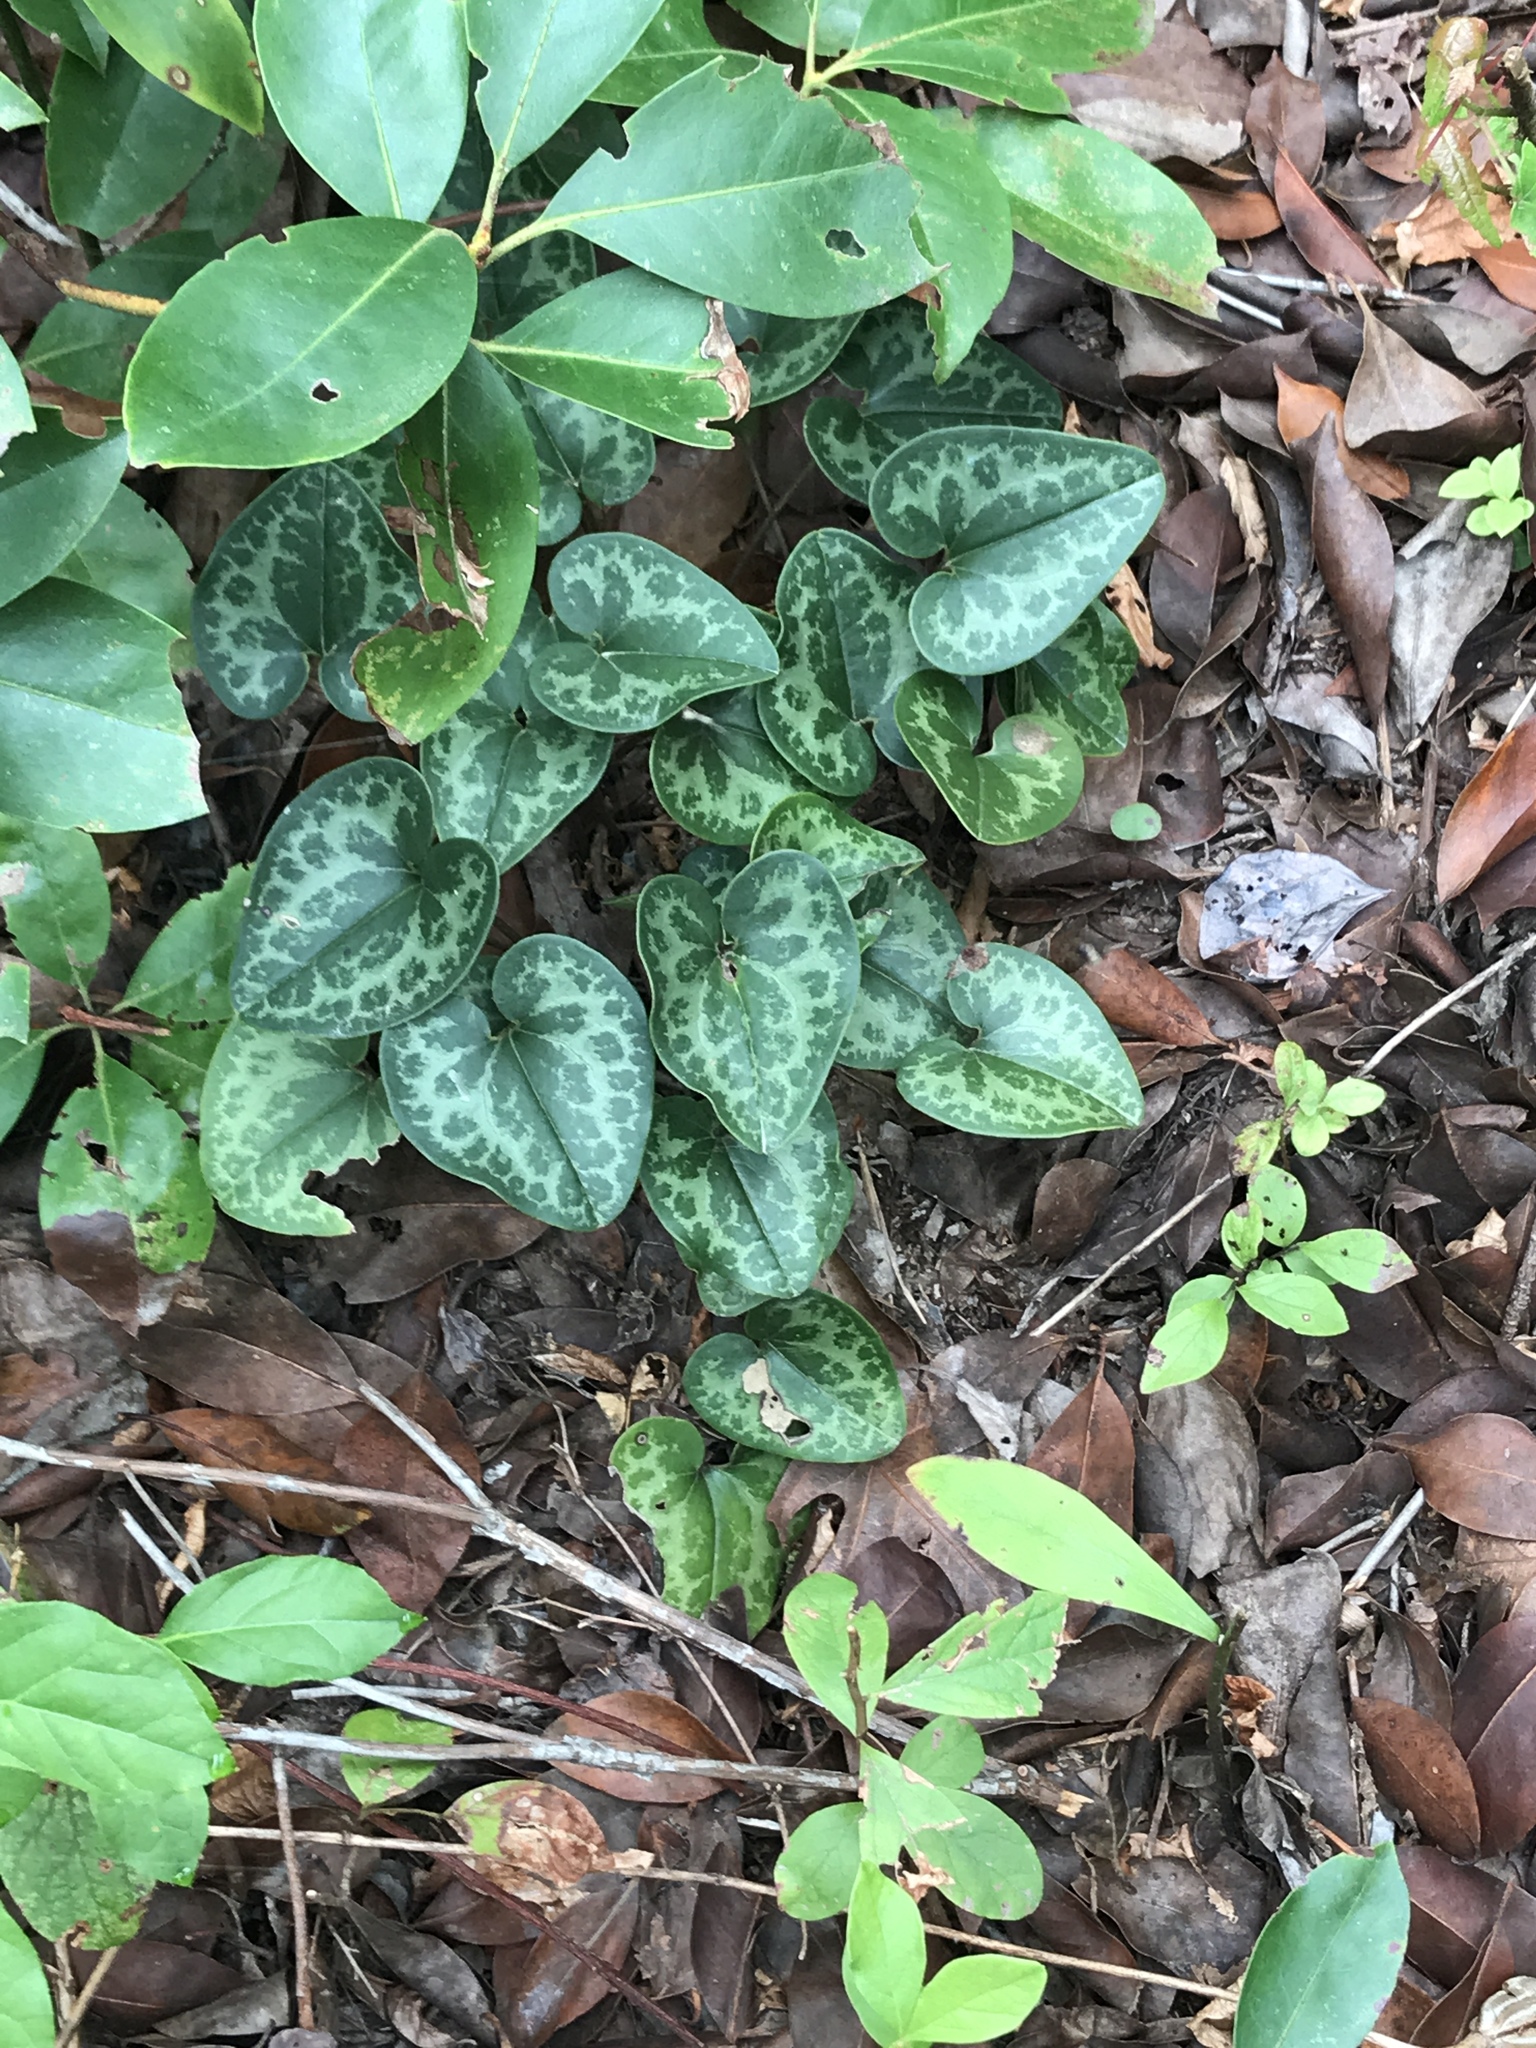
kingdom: Plantae
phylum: Tracheophyta
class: Magnoliopsida
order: Piperales
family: Aristolochiaceae
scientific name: Aristolochiaceae
